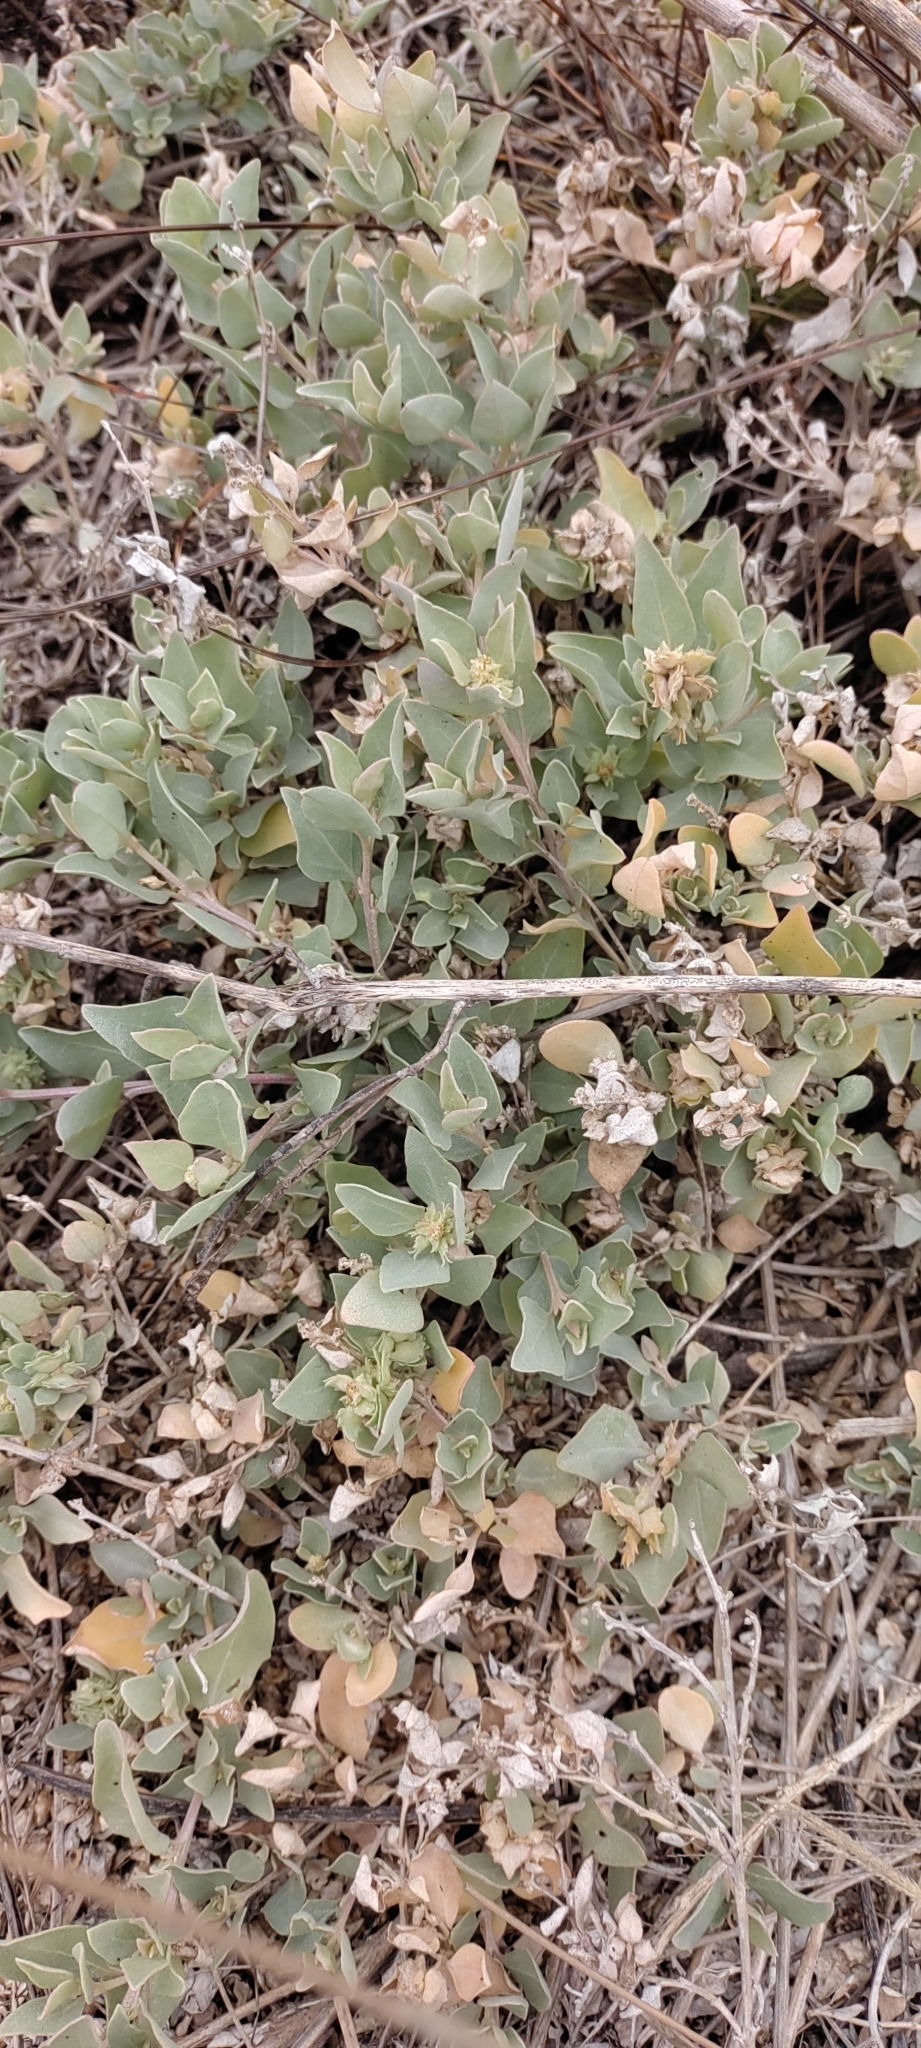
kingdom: Plantae
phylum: Tracheophyta
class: Magnoliopsida
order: Caryophyllales
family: Amaranthaceae
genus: Atriplex
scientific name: Atriplex maximowicziana
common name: Maximowicz's saltbush
